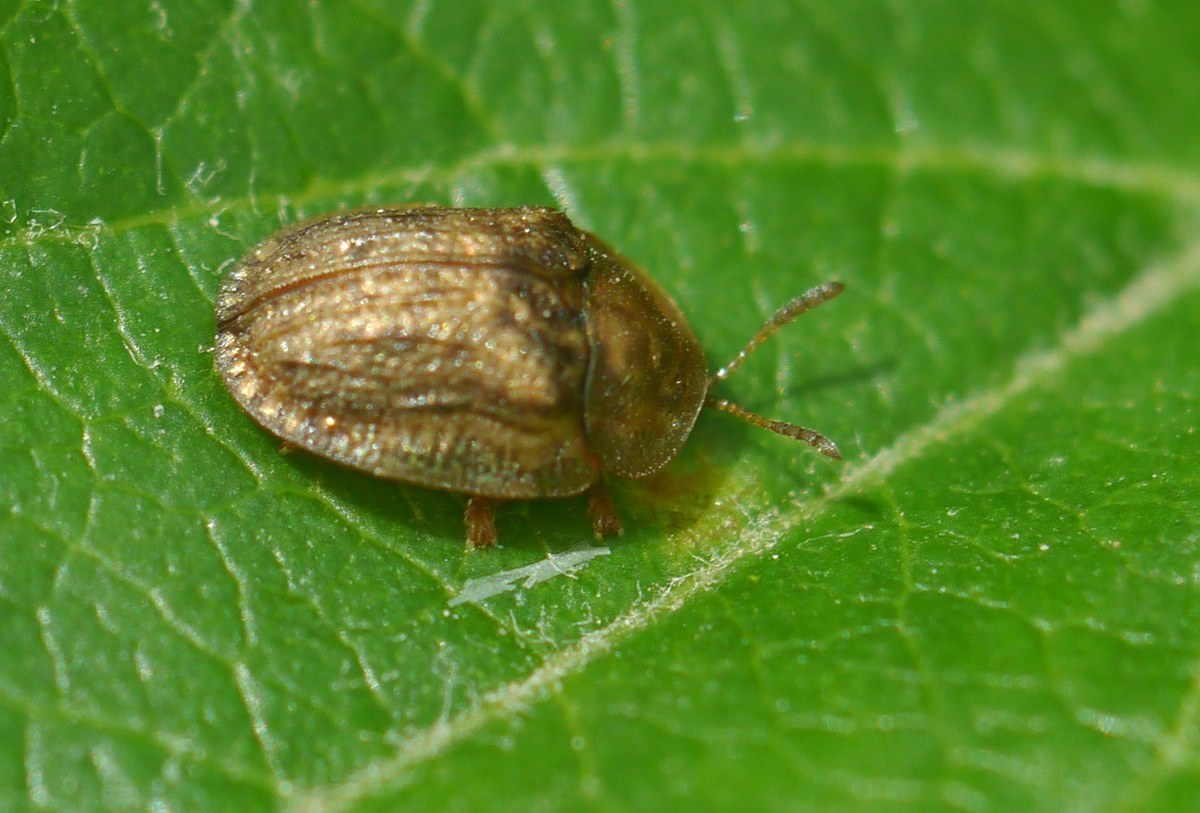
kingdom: Animalia
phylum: Arthropoda
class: Insecta
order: Coleoptera
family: Chrysomelidae
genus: Hypocassida
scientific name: Hypocassida subferruginea
